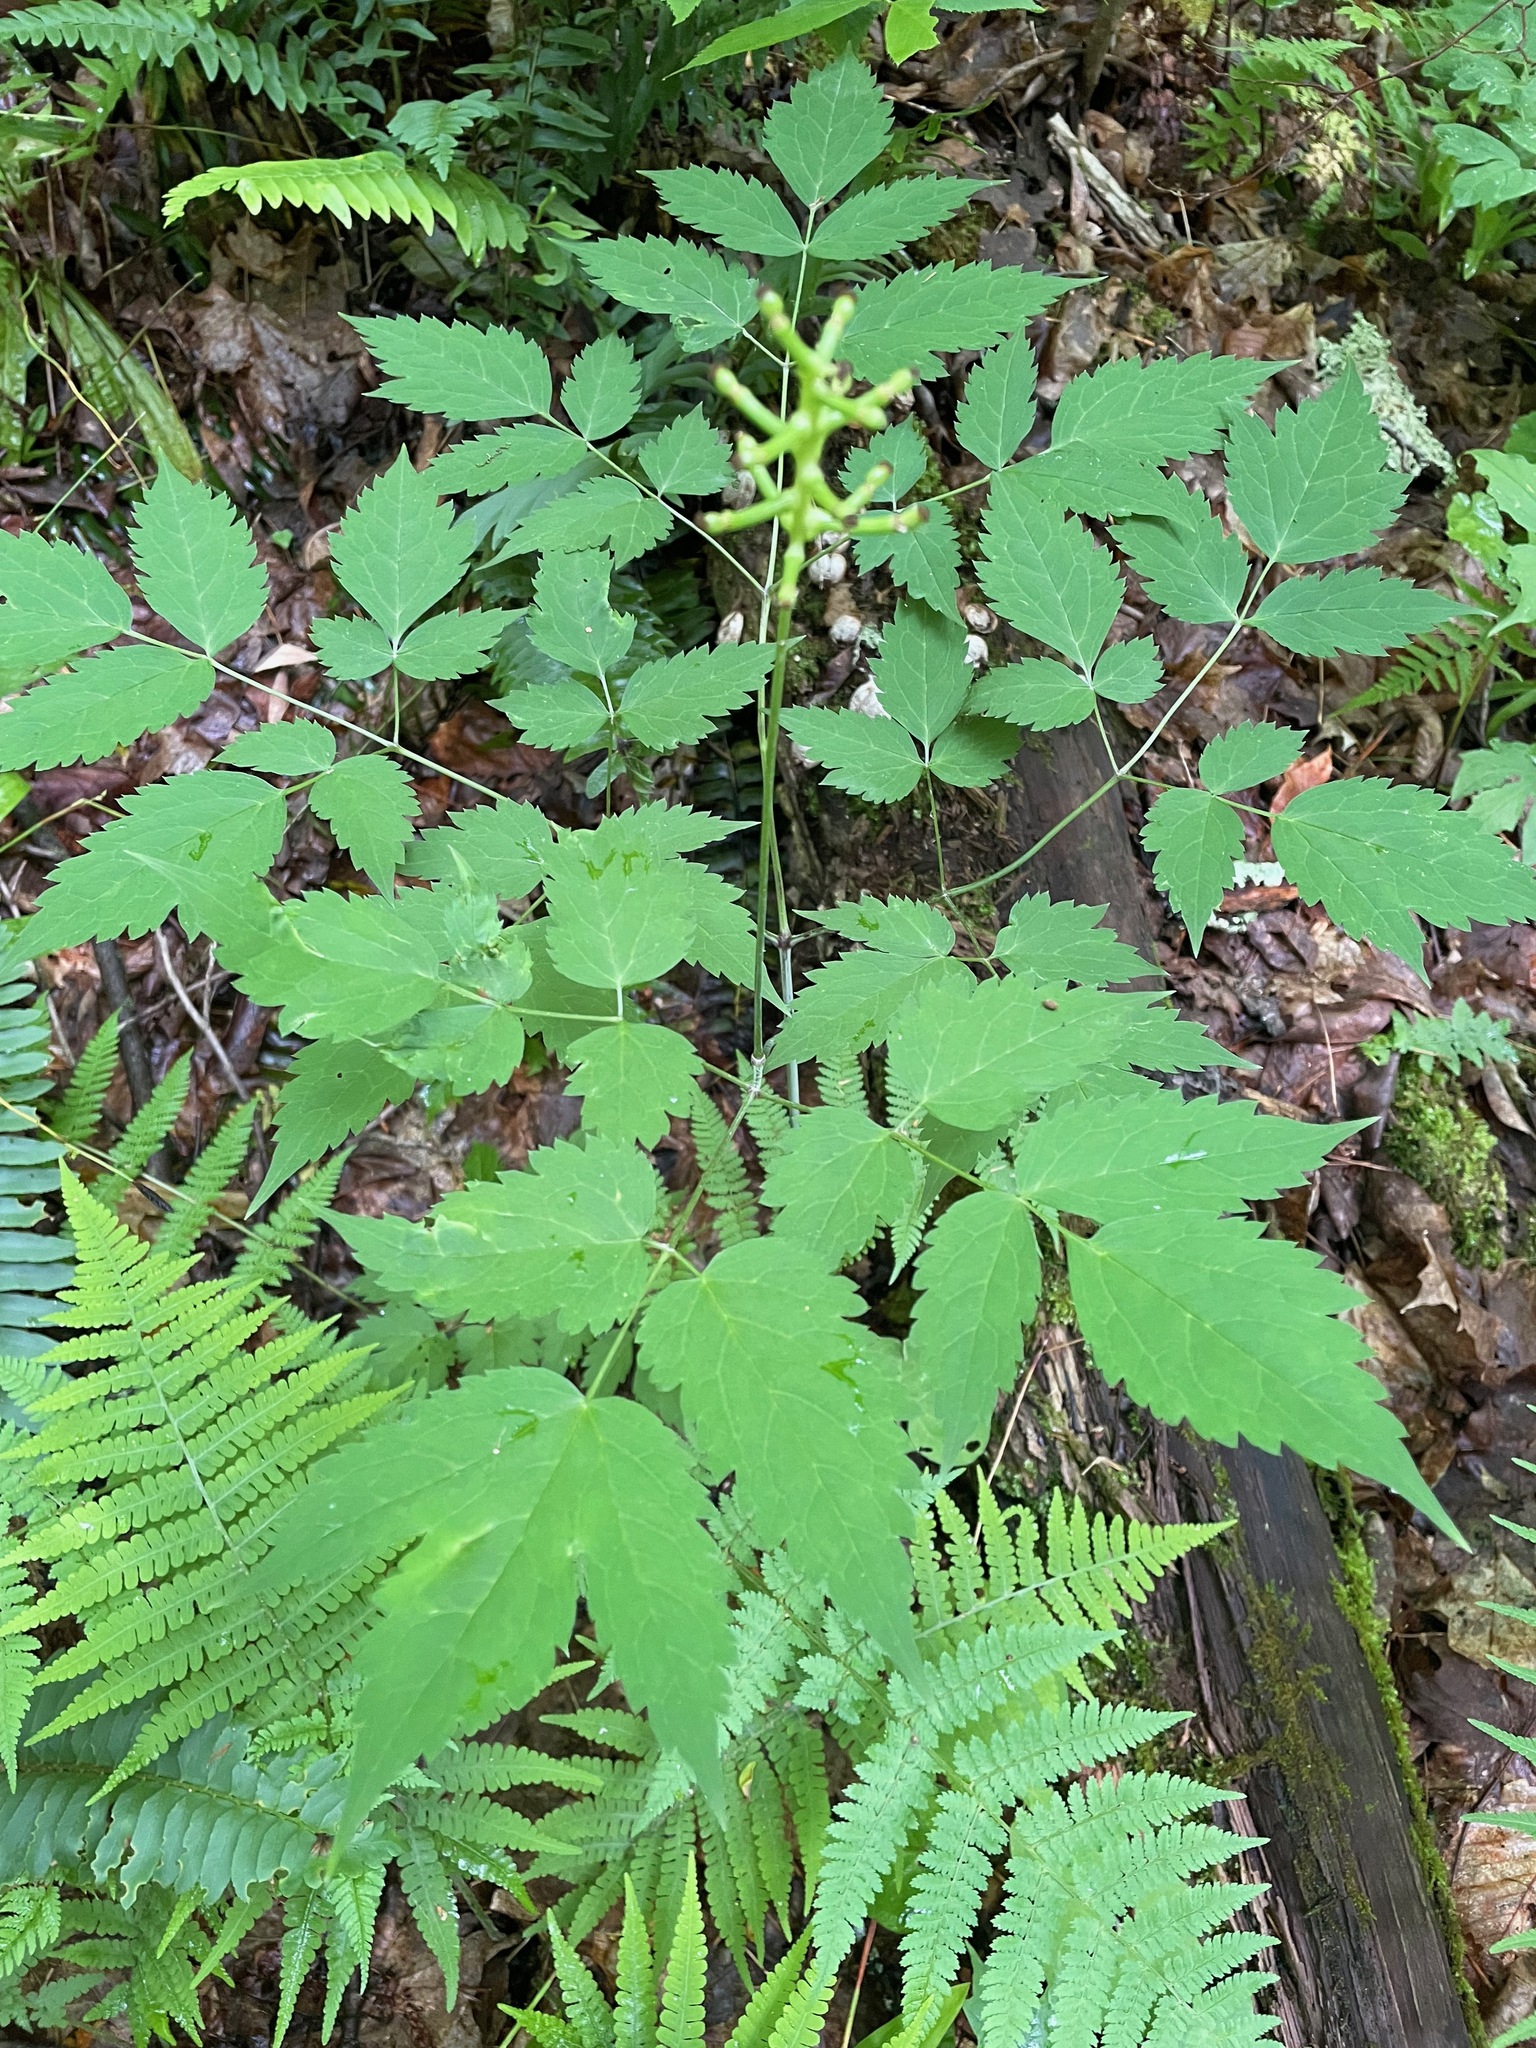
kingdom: Plantae
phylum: Tracheophyta
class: Magnoliopsida
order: Ranunculales
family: Ranunculaceae
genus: Actaea
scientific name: Actaea pachypoda
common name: Doll's-eyes
